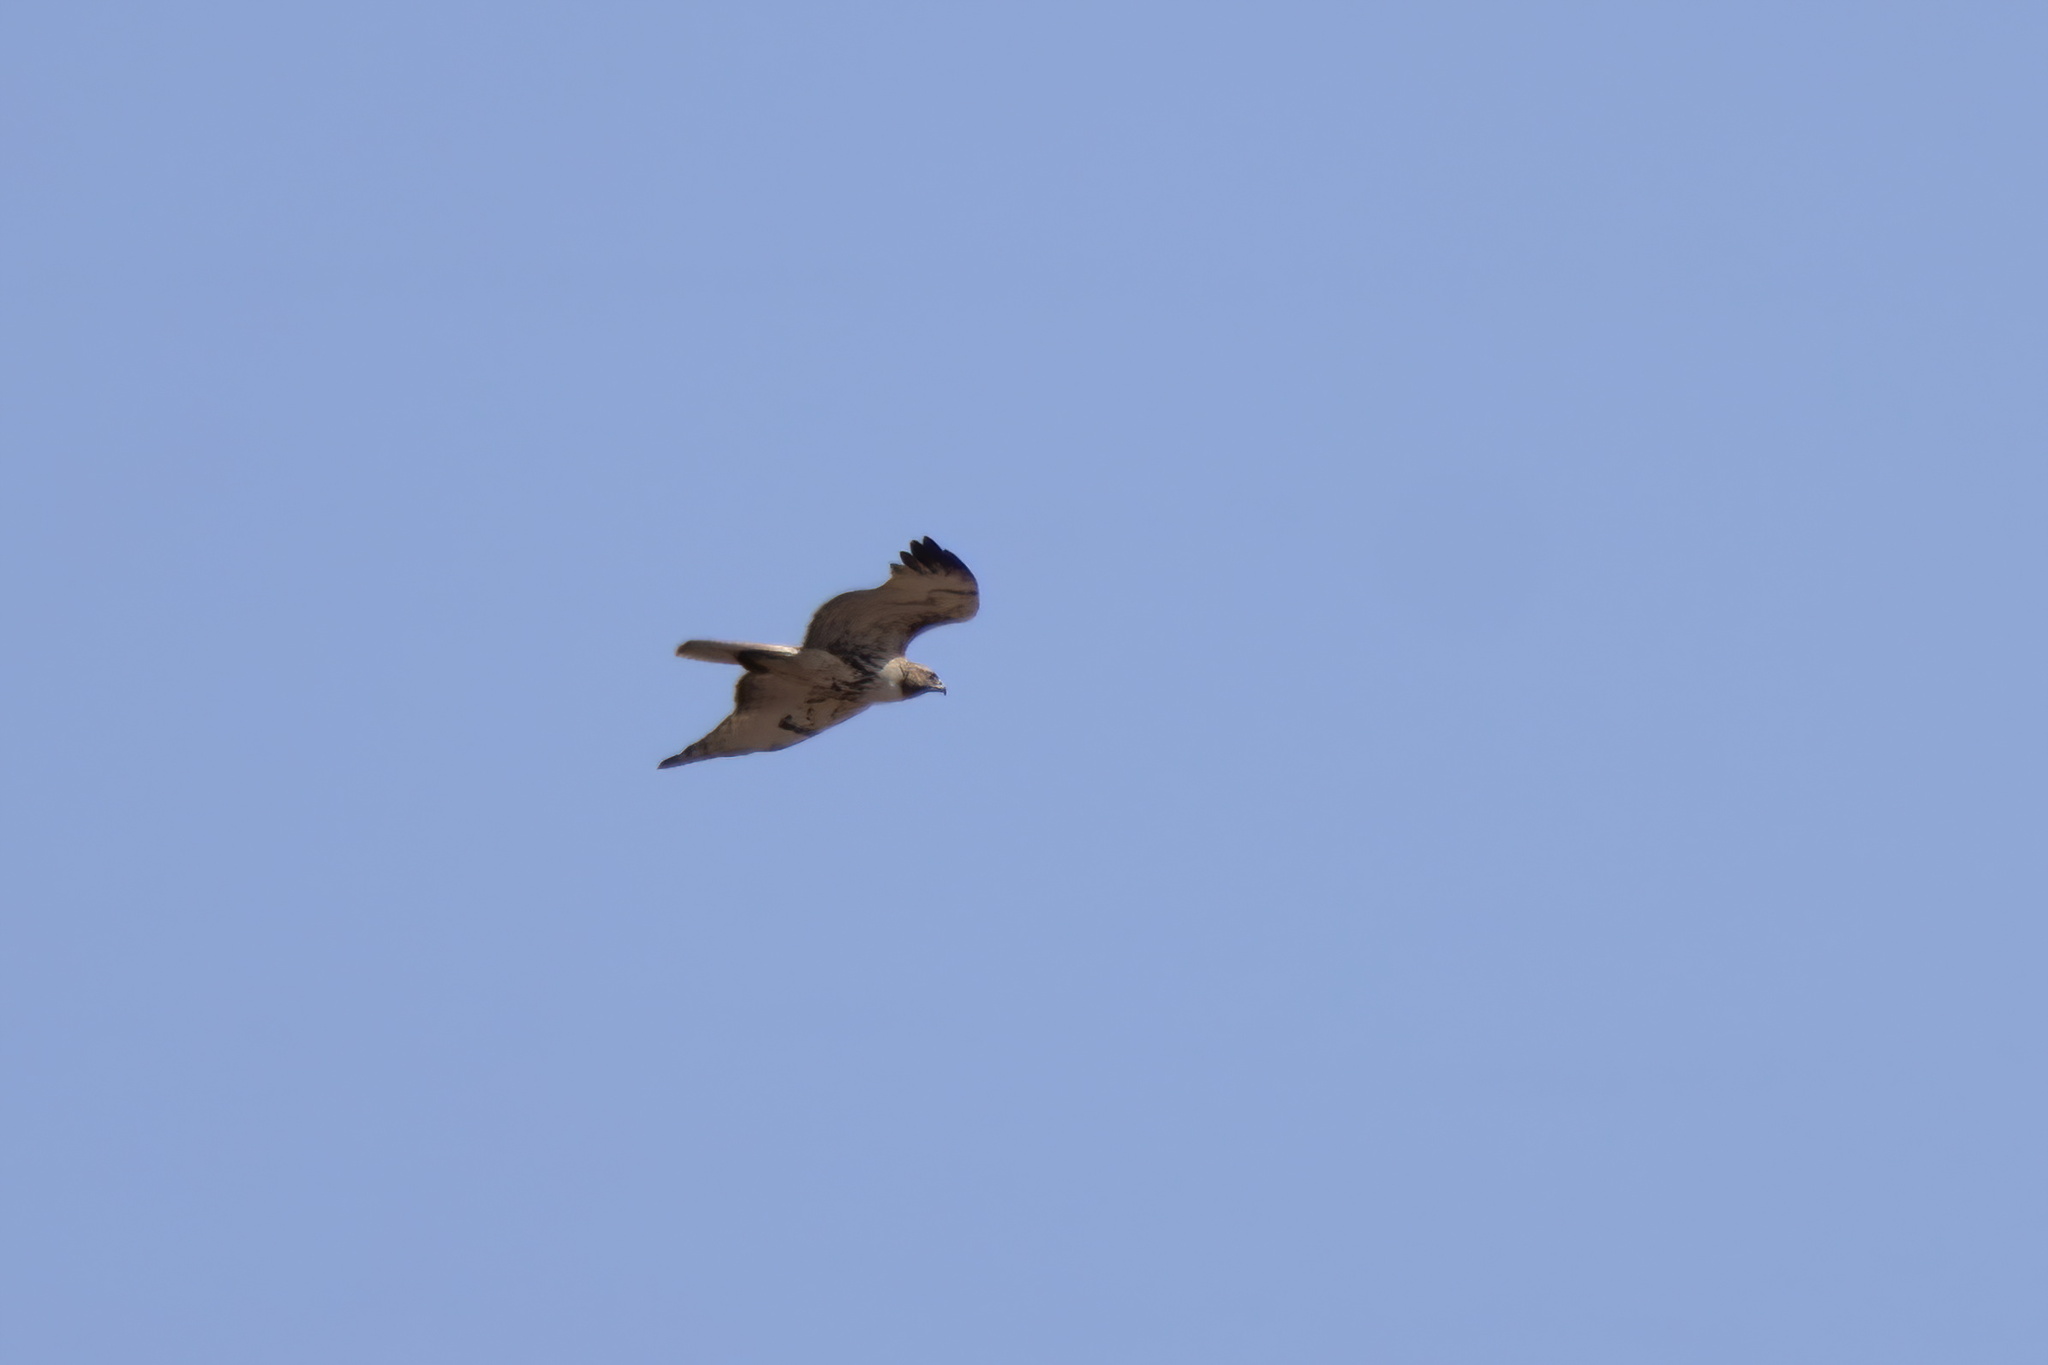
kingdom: Animalia
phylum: Chordata
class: Aves
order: Accipitriformes
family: Accipitridae
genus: Buteo
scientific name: Buteo jamaicensis
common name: Red-tailed hawk
